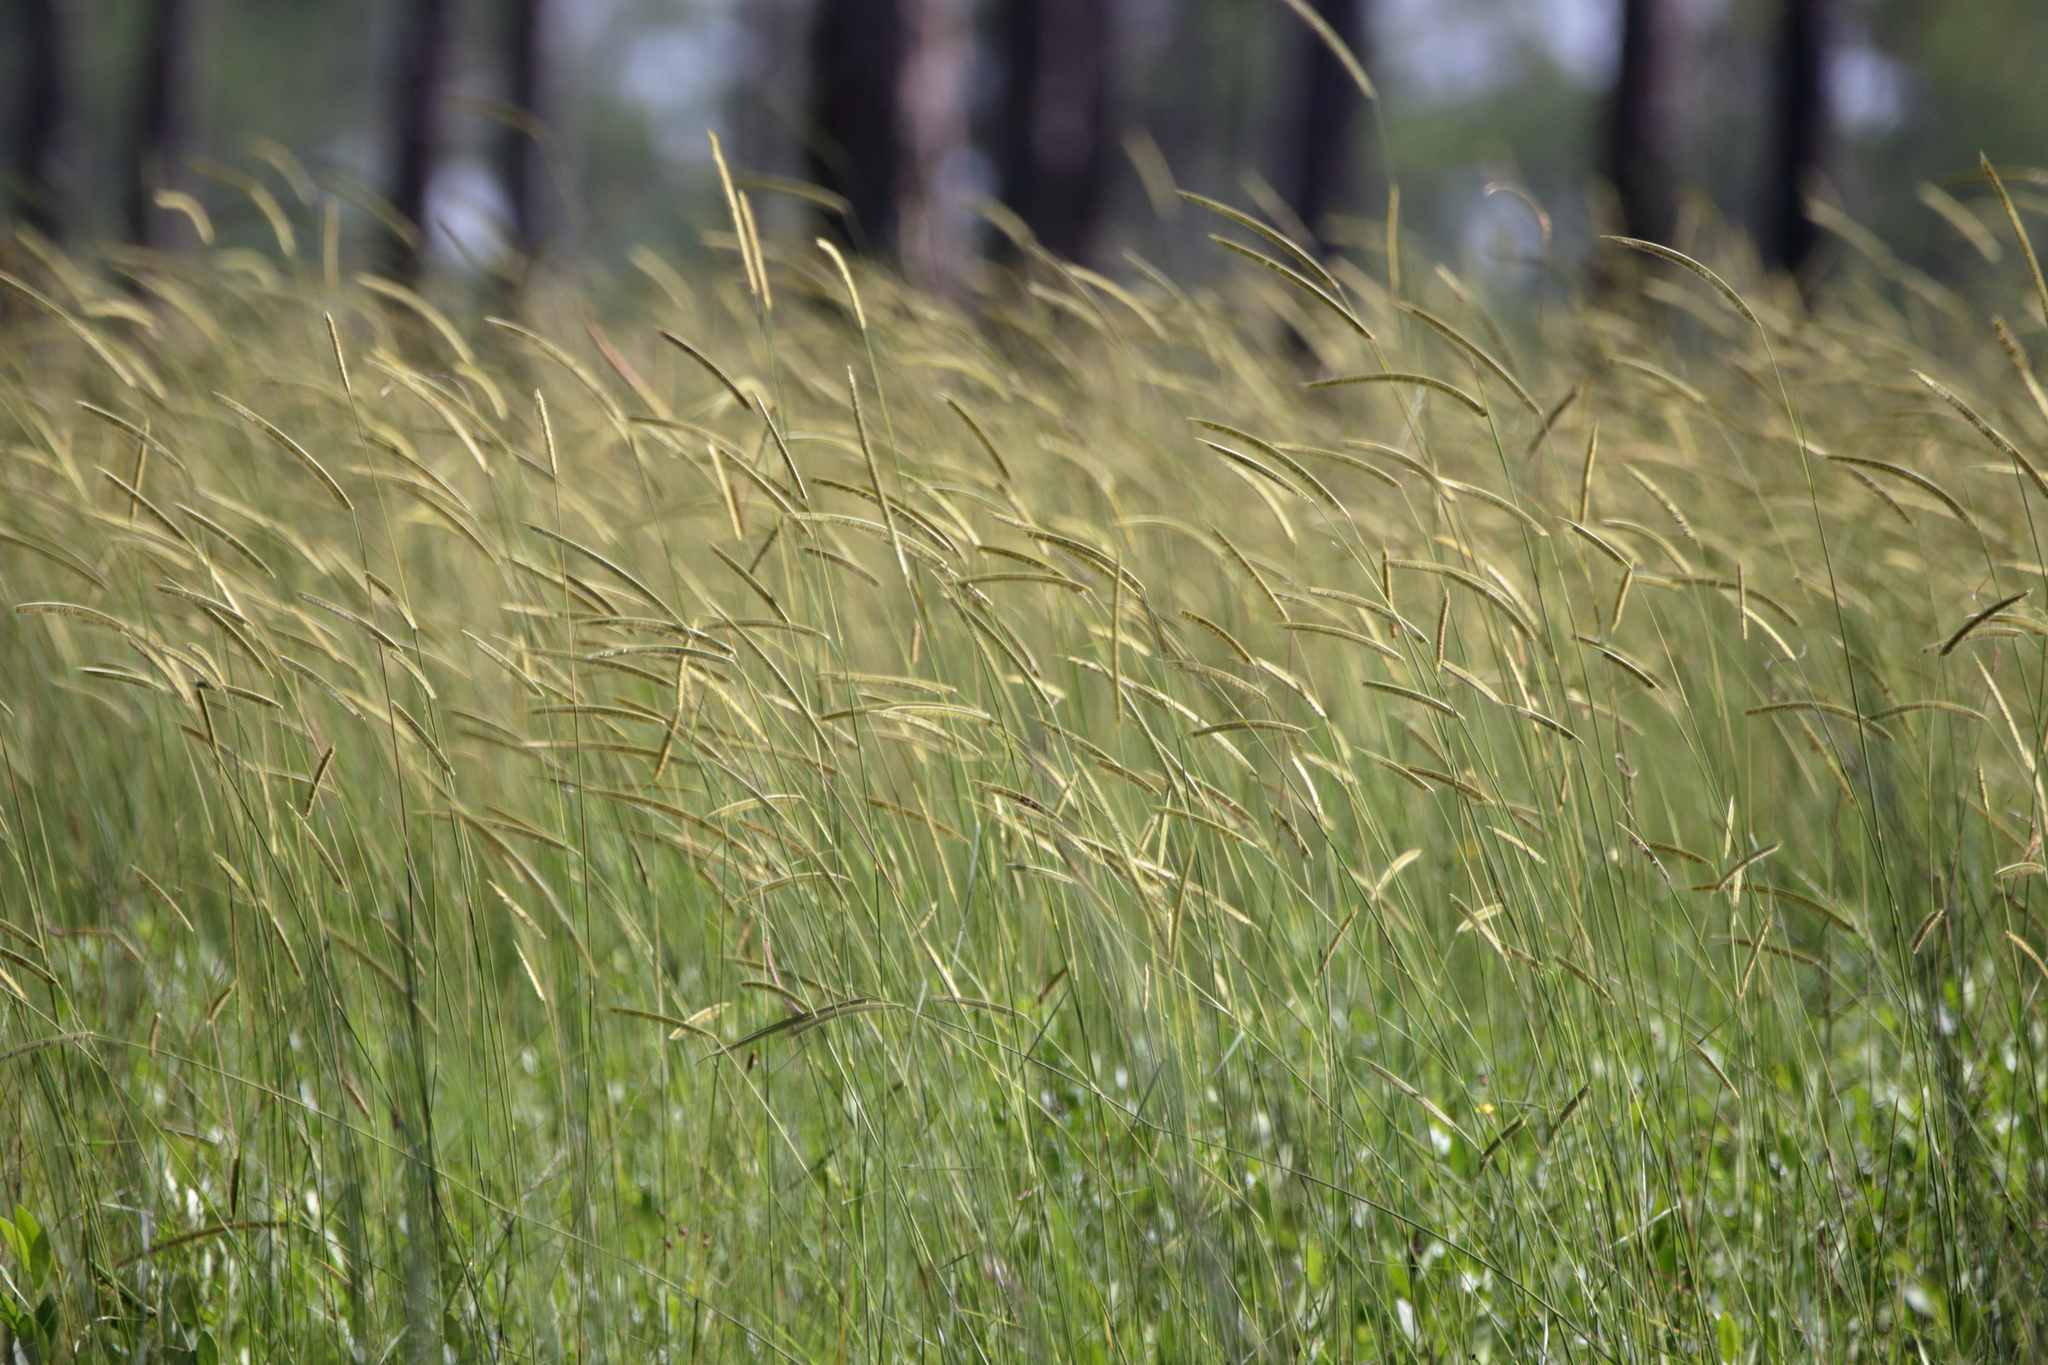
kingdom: Plantae
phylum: Tracheophyta
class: Liliopsida
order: Poales
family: Poaceae
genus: Ctenium
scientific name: Ctenium aromaticum
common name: Toothache grass
